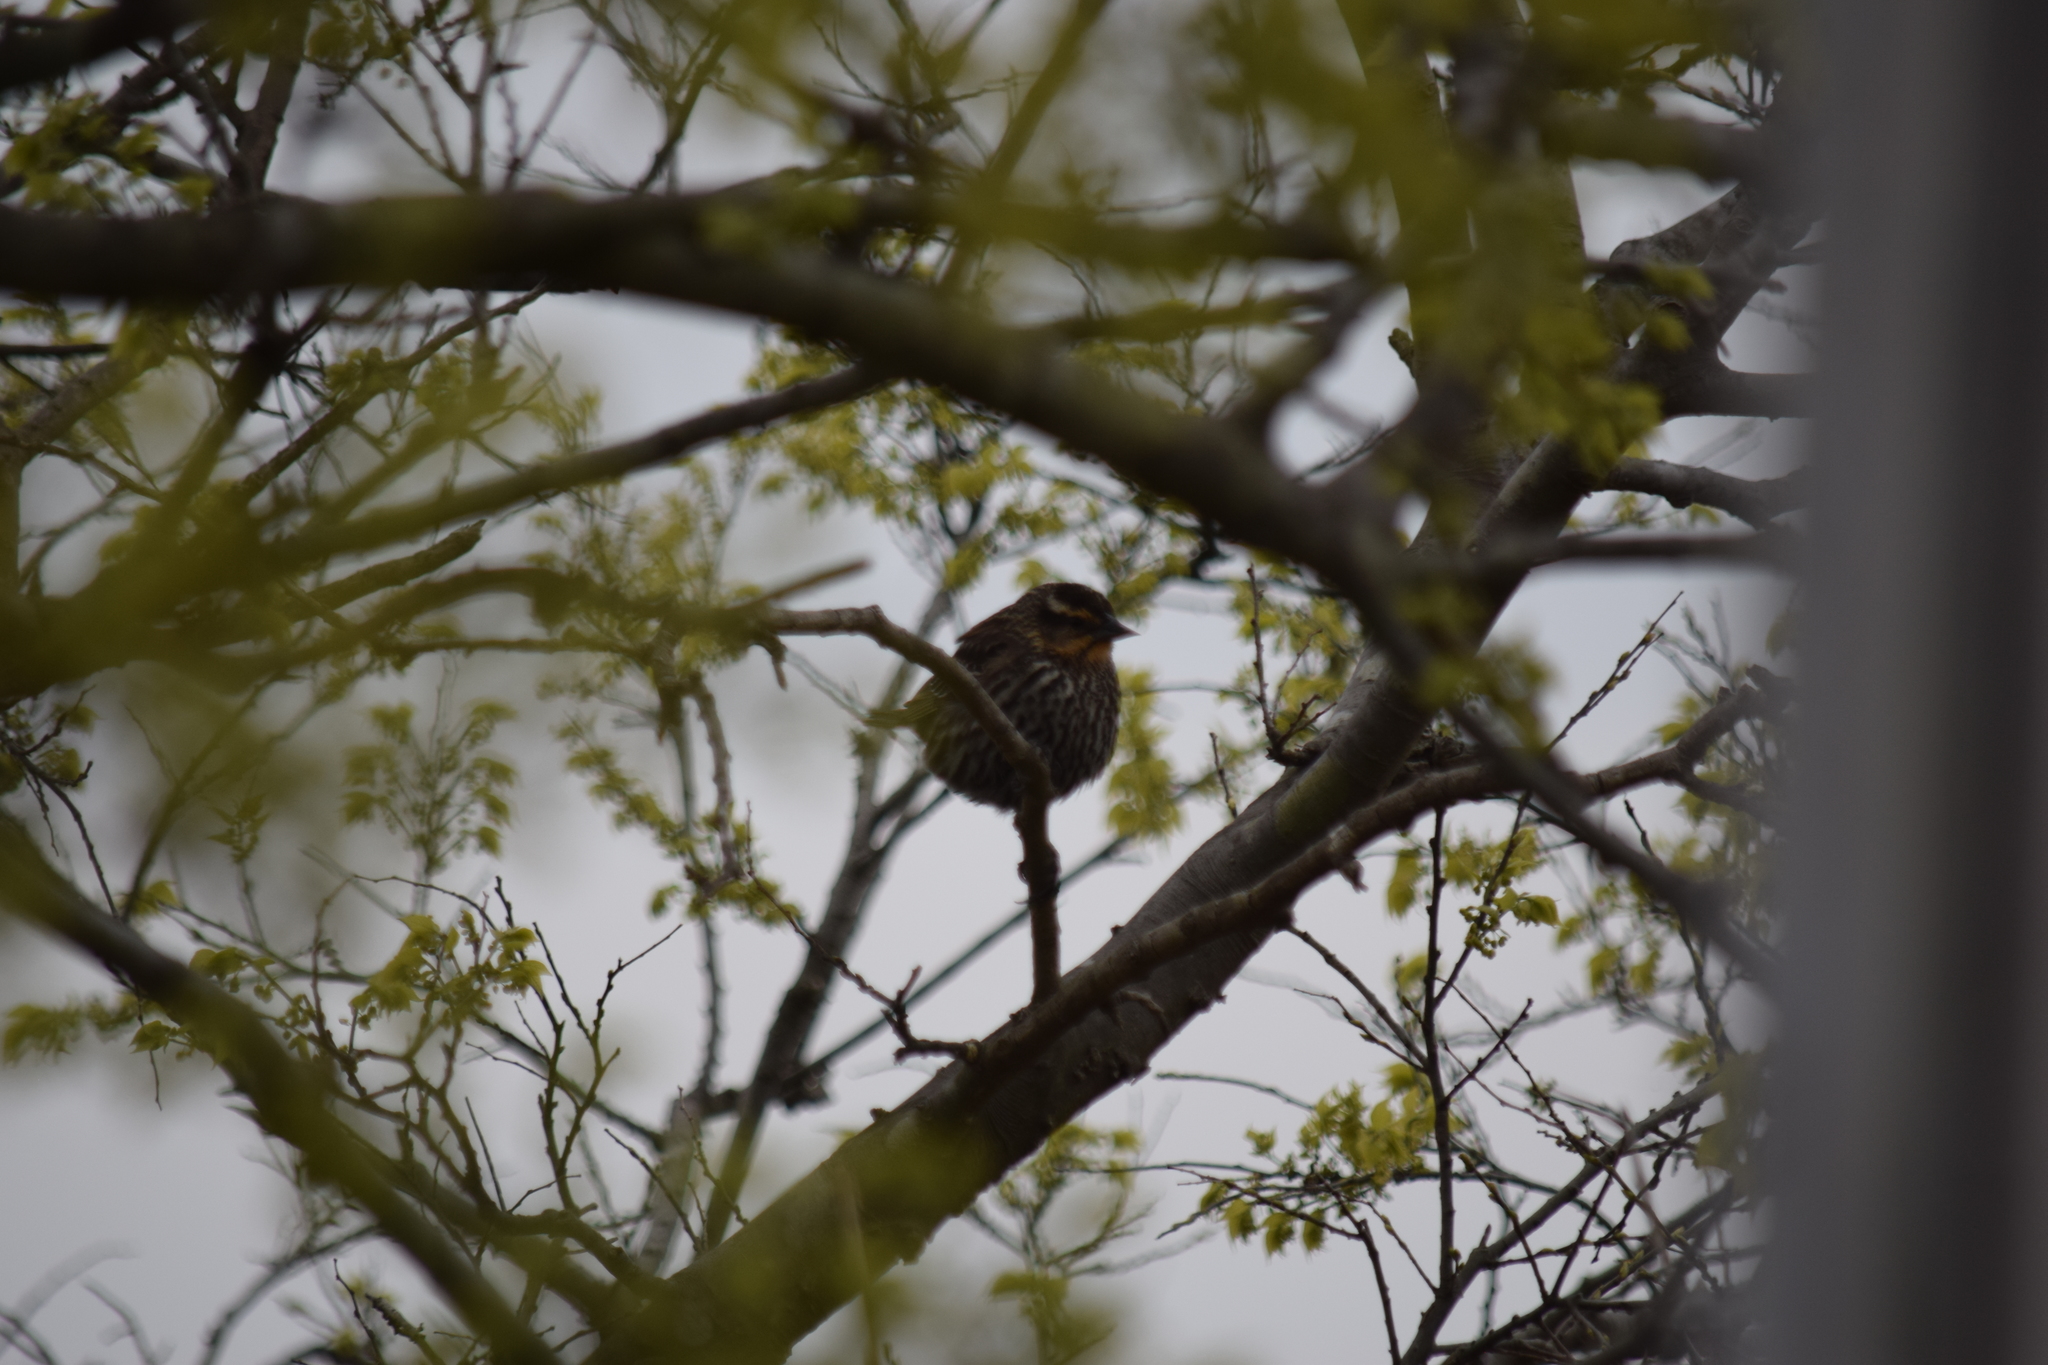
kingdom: Animalia
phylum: Chordata
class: Aves
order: Passeriformes
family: Icteridae
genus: Agelaius
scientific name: Agelaius phoeniceus
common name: Red-winged blackbird
